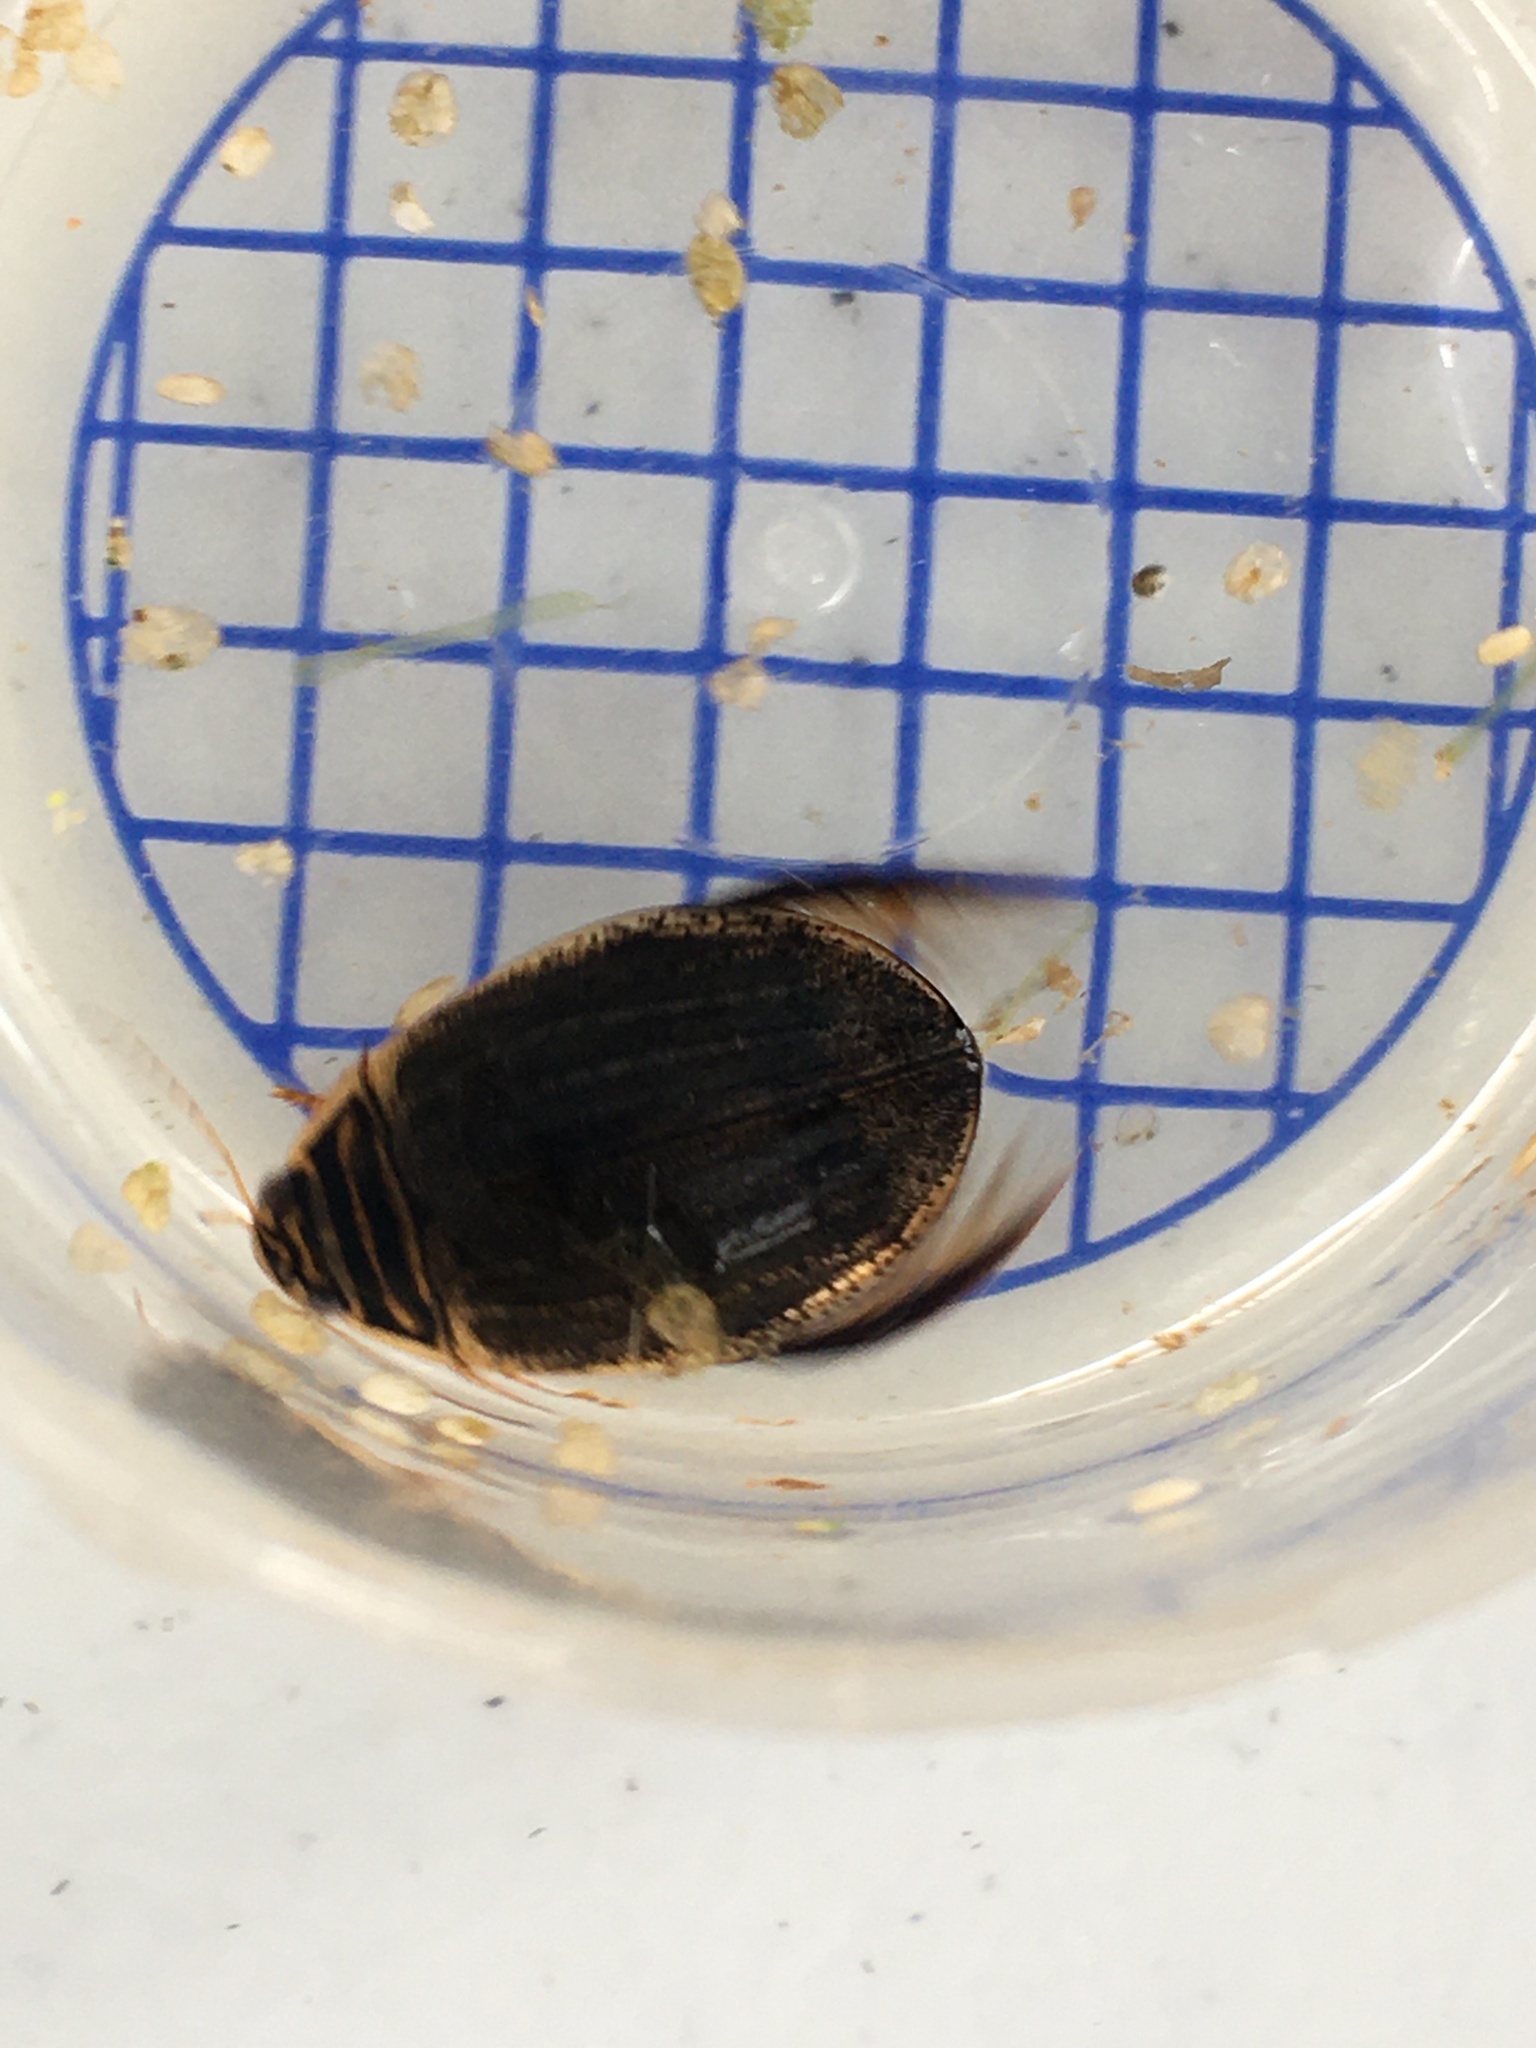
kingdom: Animalia
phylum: Arthropoda
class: Insecta
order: Coleoptera
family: Dytiscidae
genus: Acilius
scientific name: Acilius sulcatus
